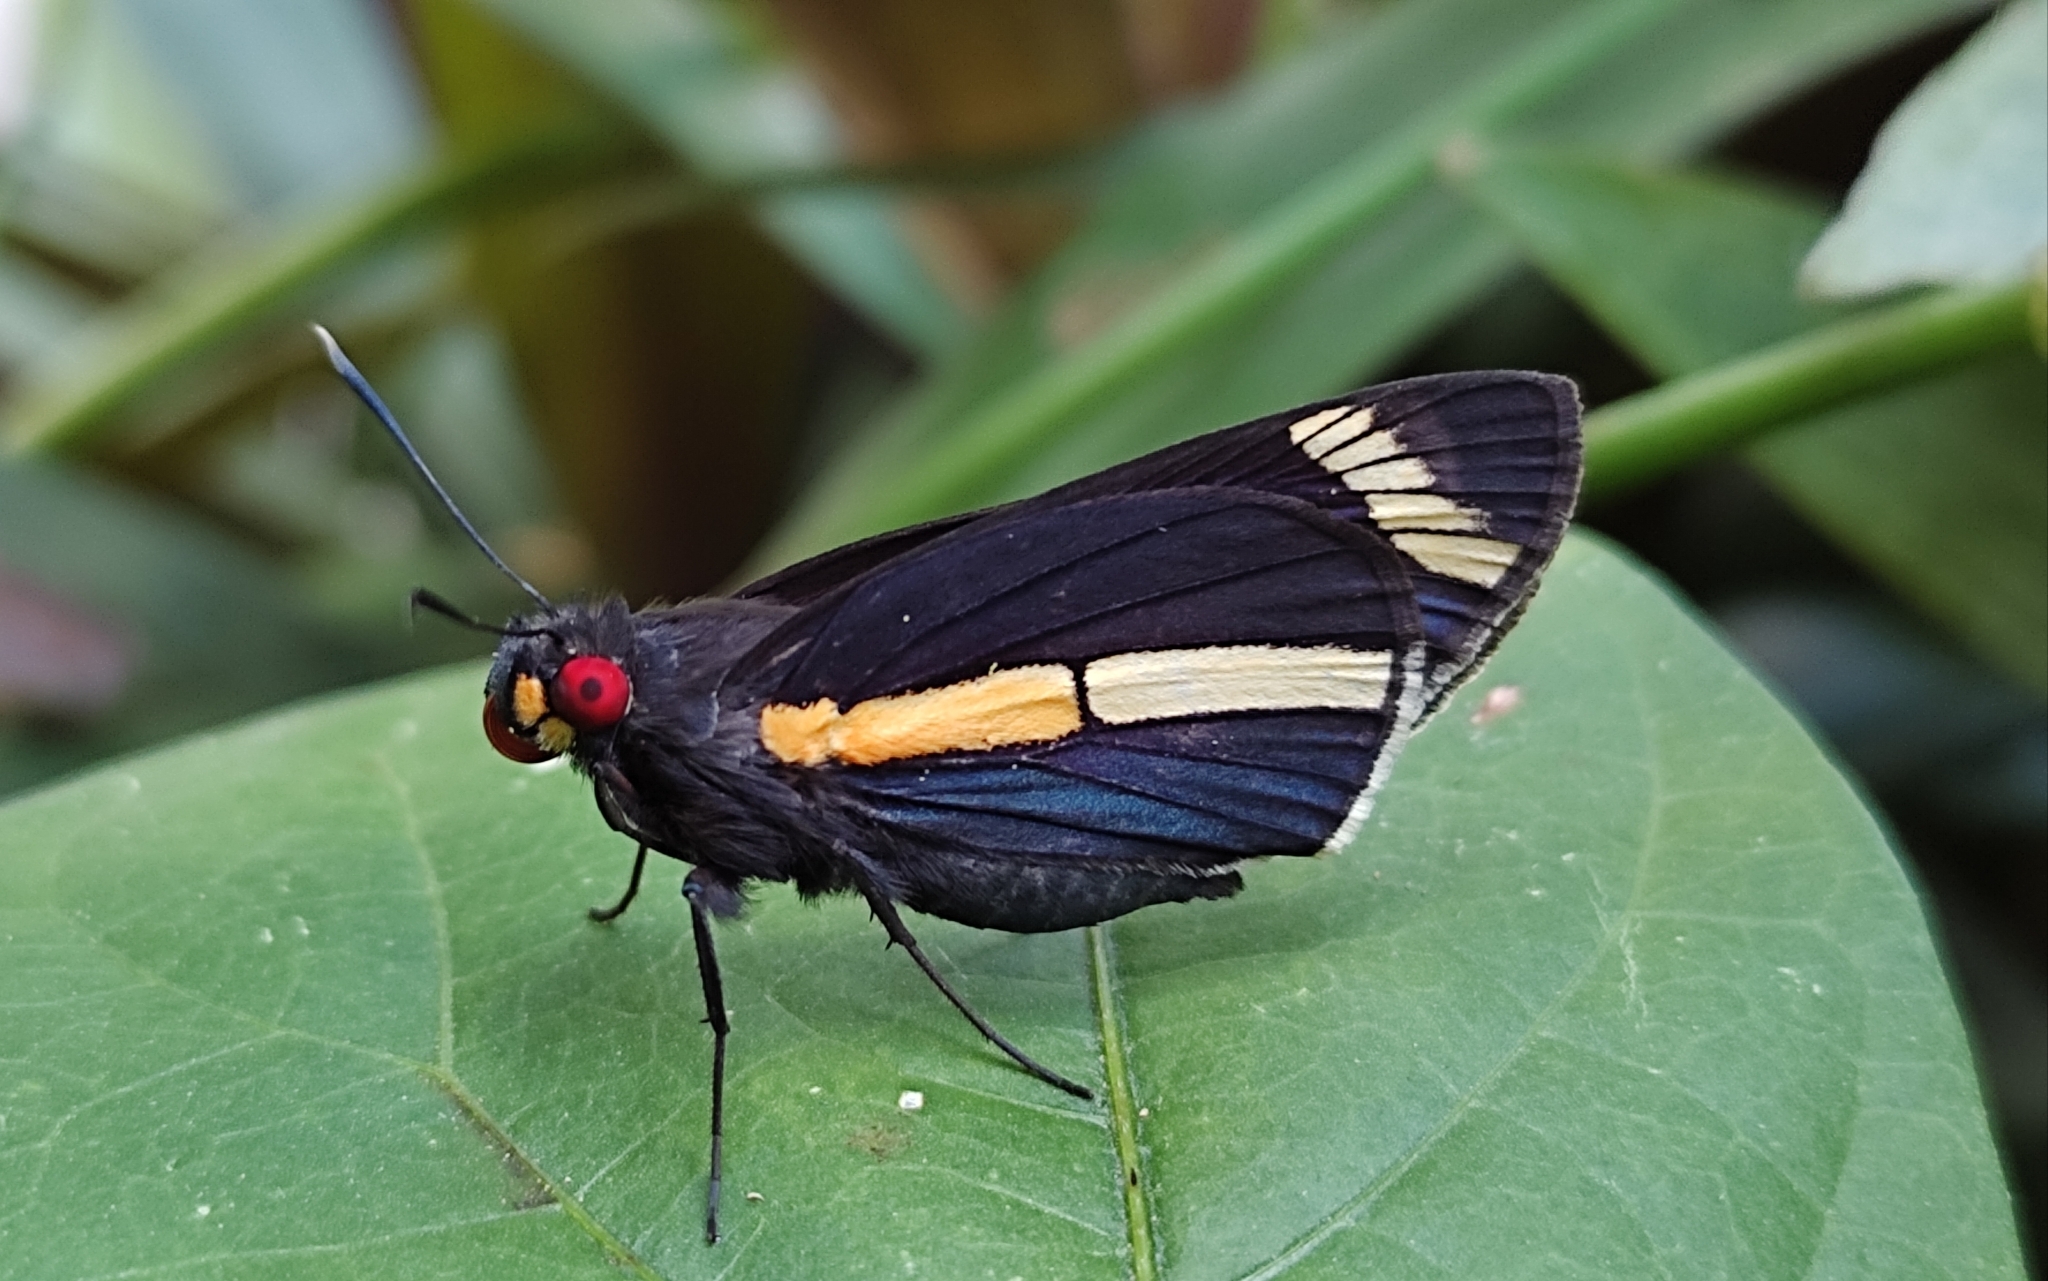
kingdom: Animalia
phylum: Arthropoda
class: Insecta
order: Lepidoptera
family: Hesperiidae
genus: Carystus
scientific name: Carystus
